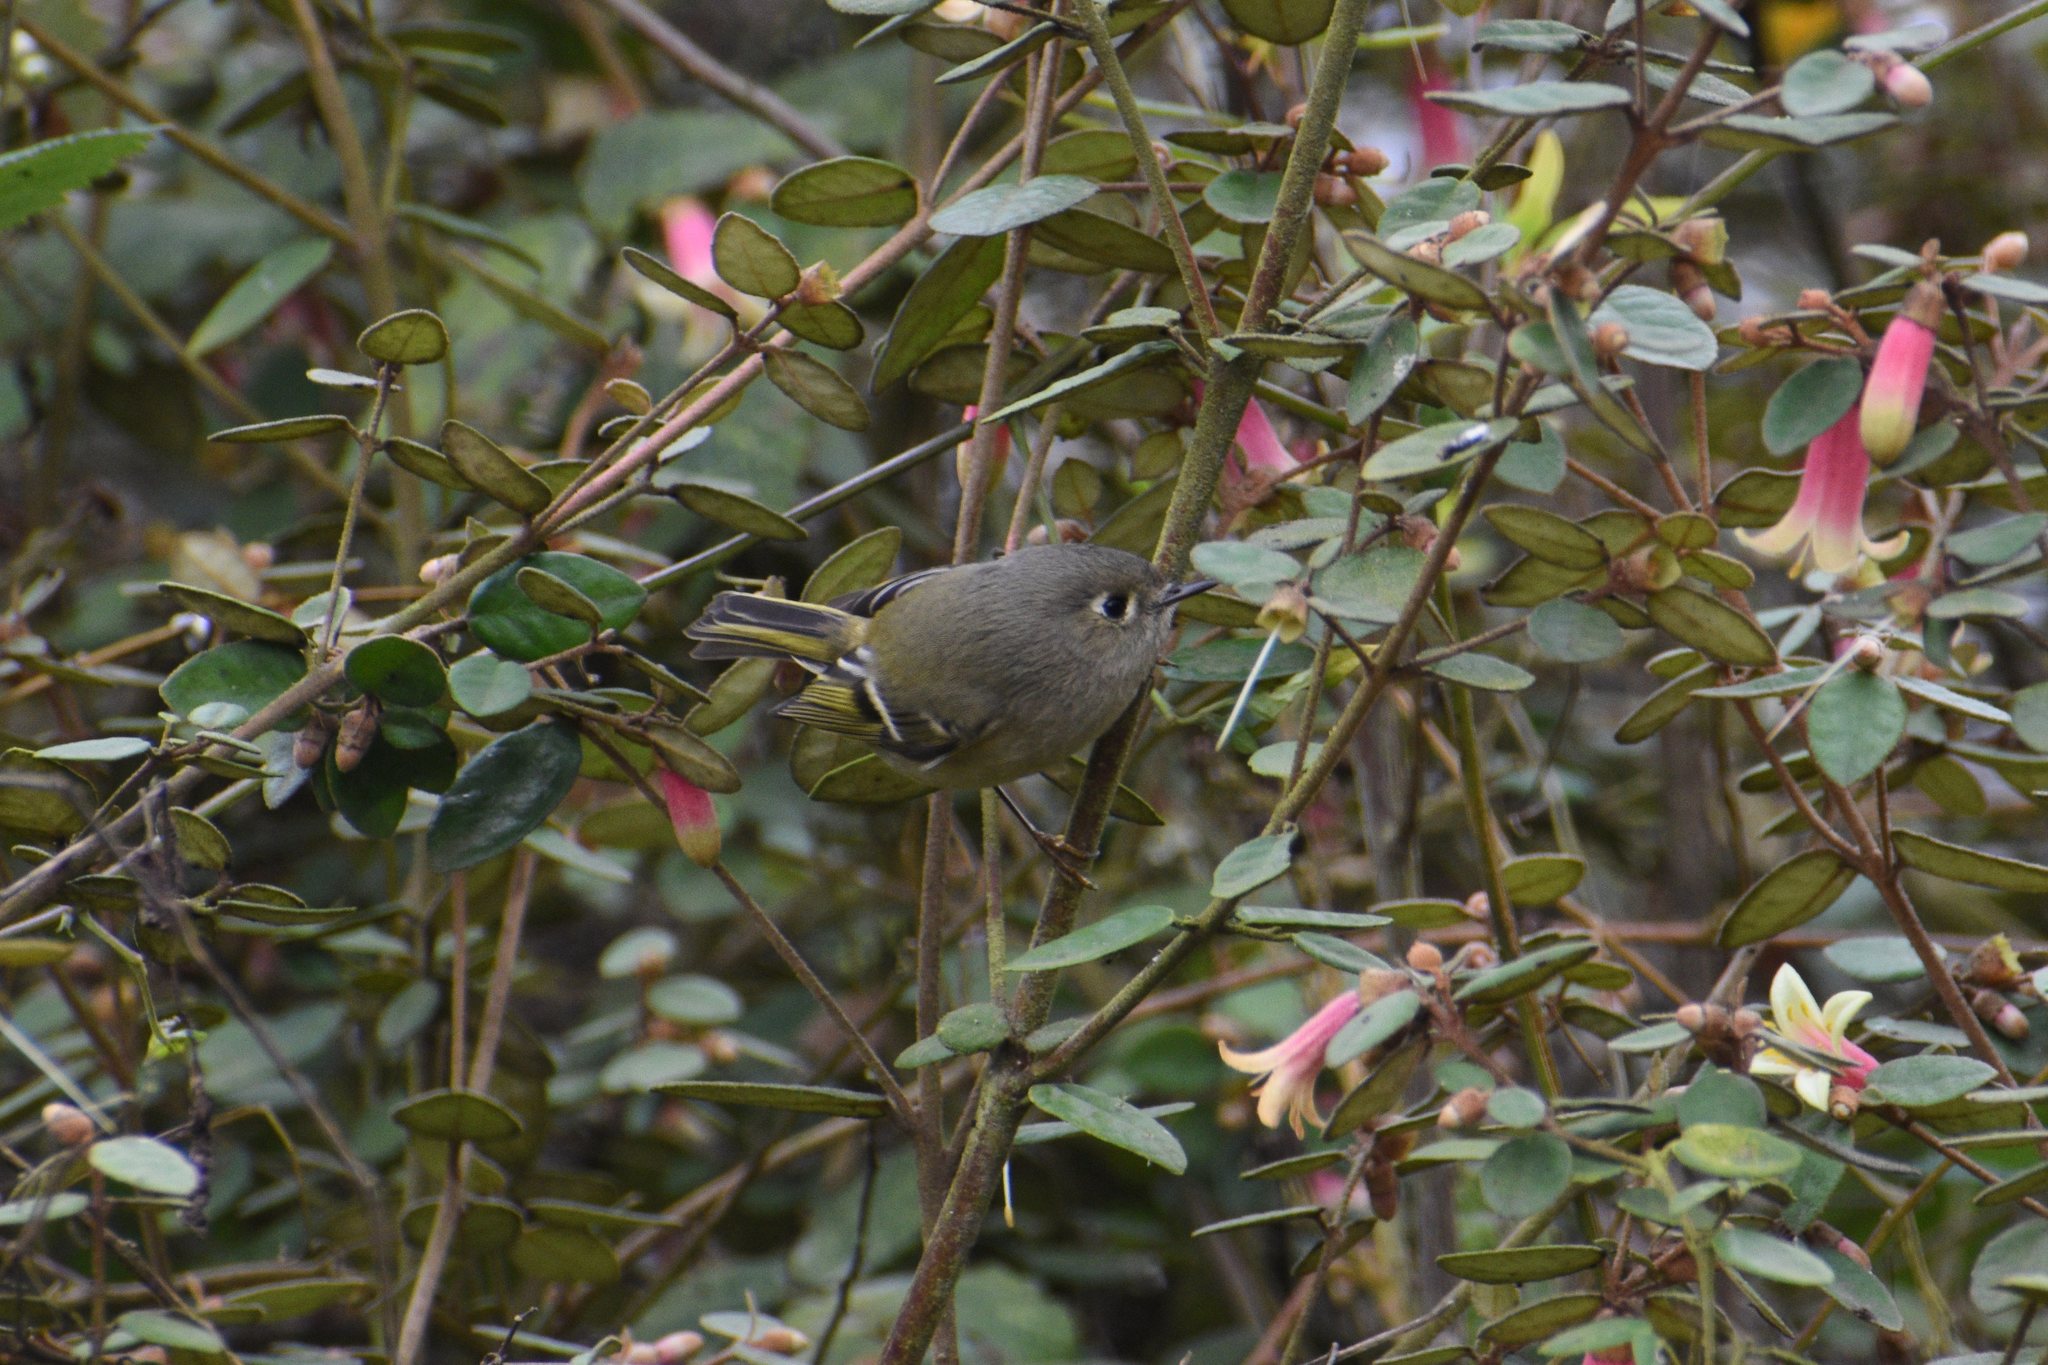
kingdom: Animalia
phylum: Chordata
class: Aves
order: Passeriformes
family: Regulidae
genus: Regulus
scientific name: Regulus calendula
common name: Ruby-crowned kinglet
